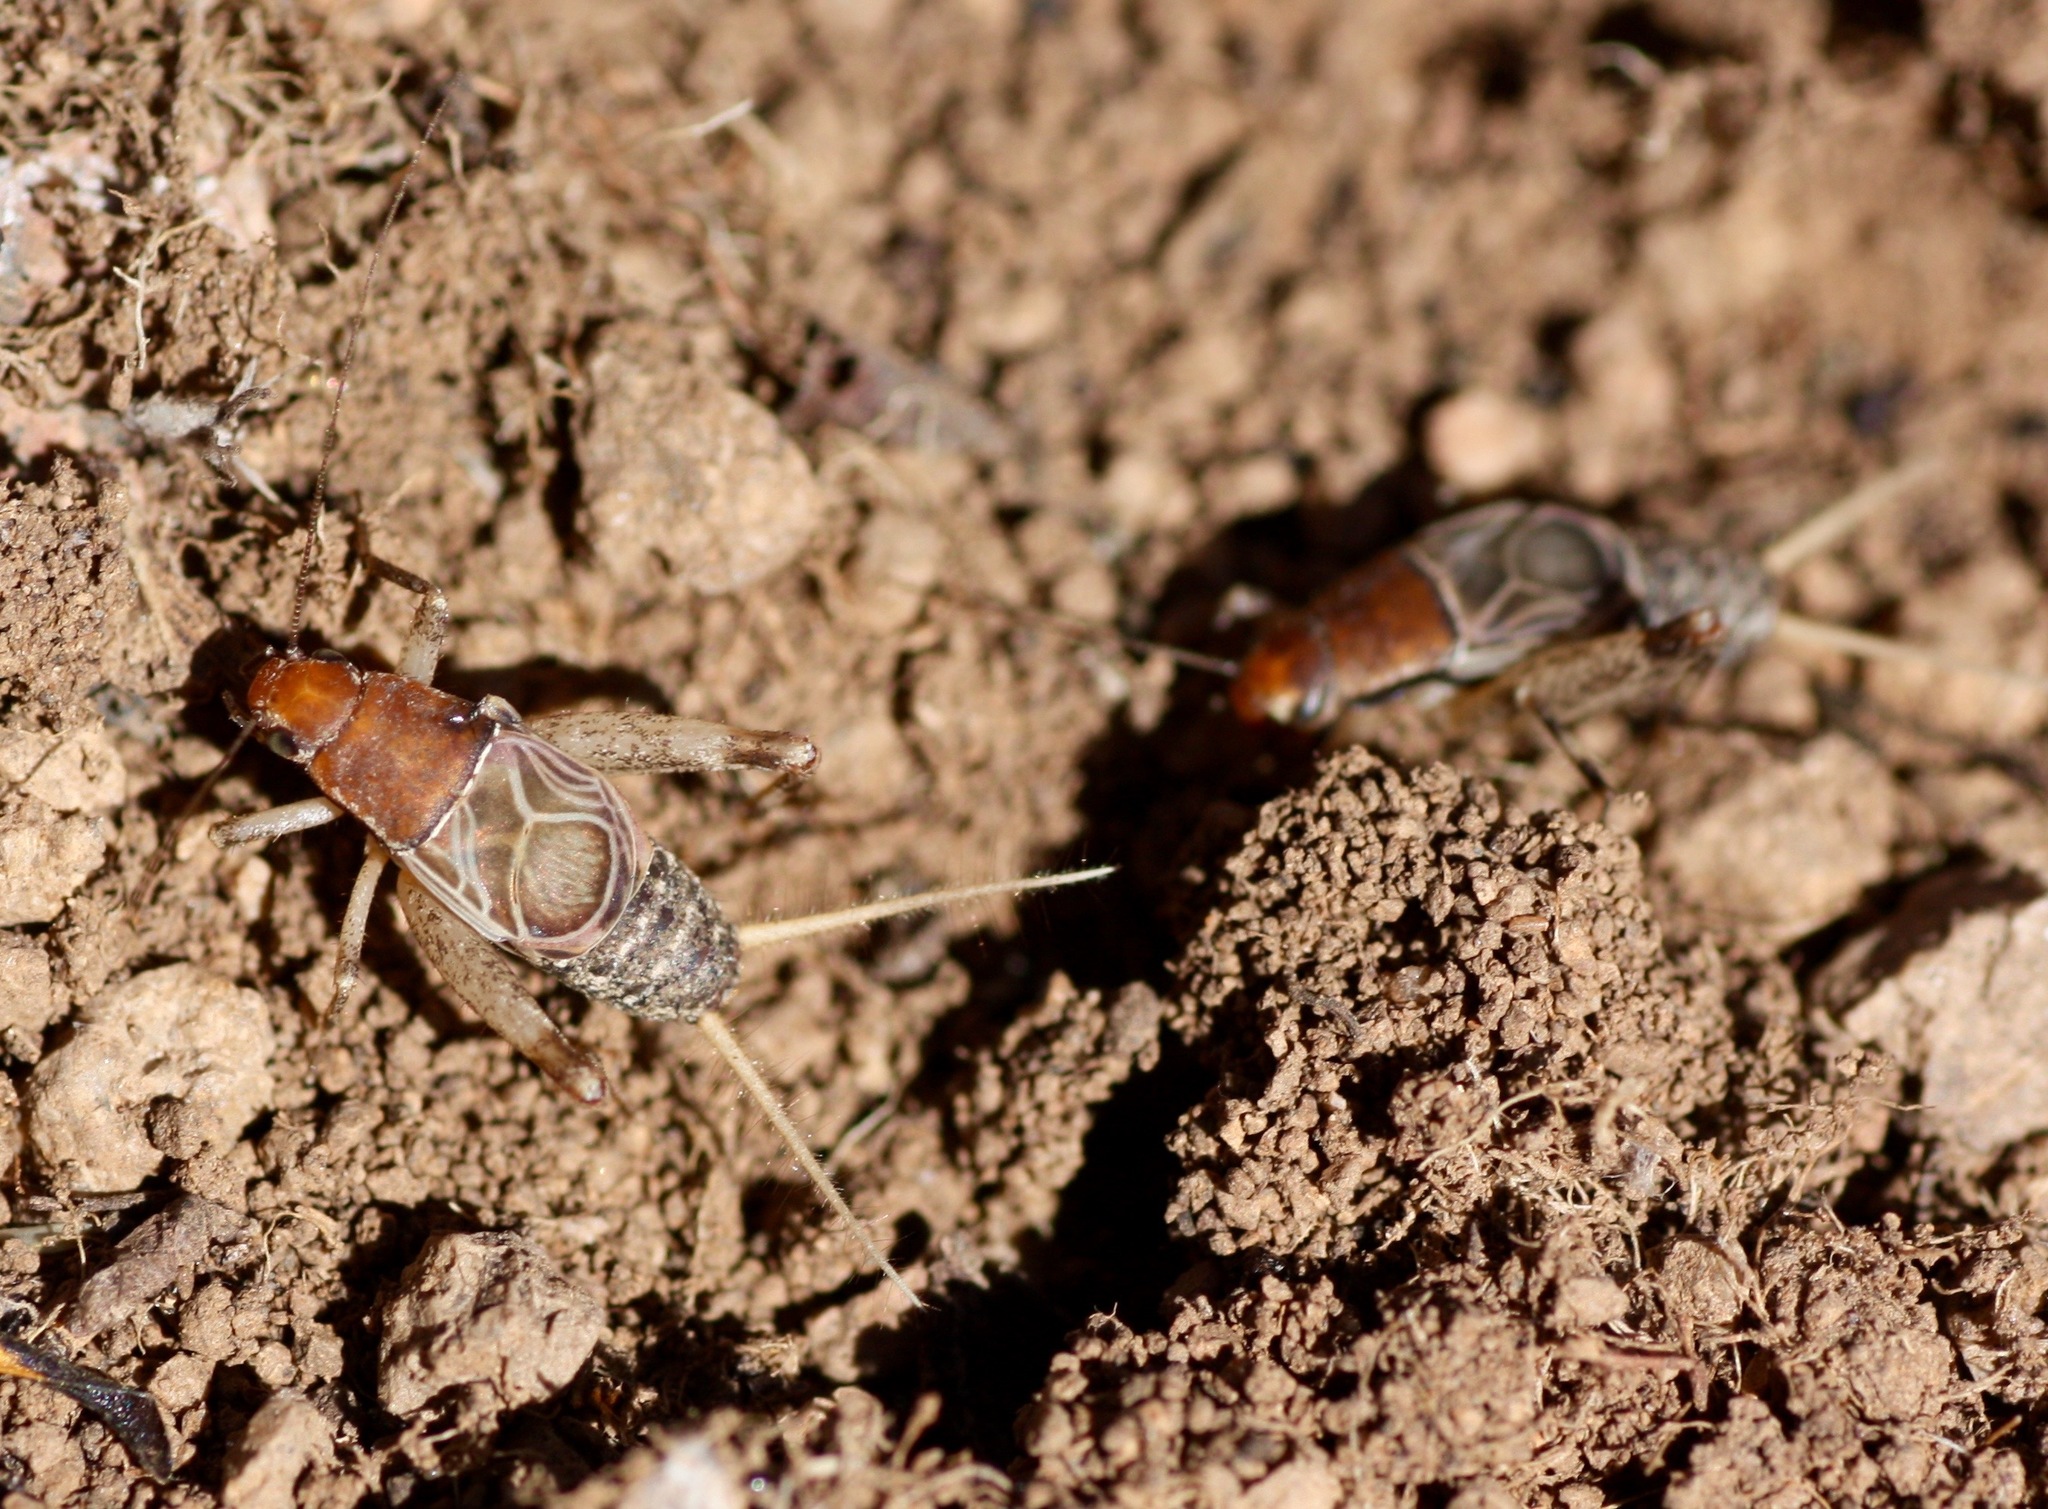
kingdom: Animalia
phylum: Arthropoda
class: Insecta
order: Orthoptera
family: Mogoplistidae
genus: Hoplosphyrum
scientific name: Hoplosphyrum boreale
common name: Long-winged scaly cricket
